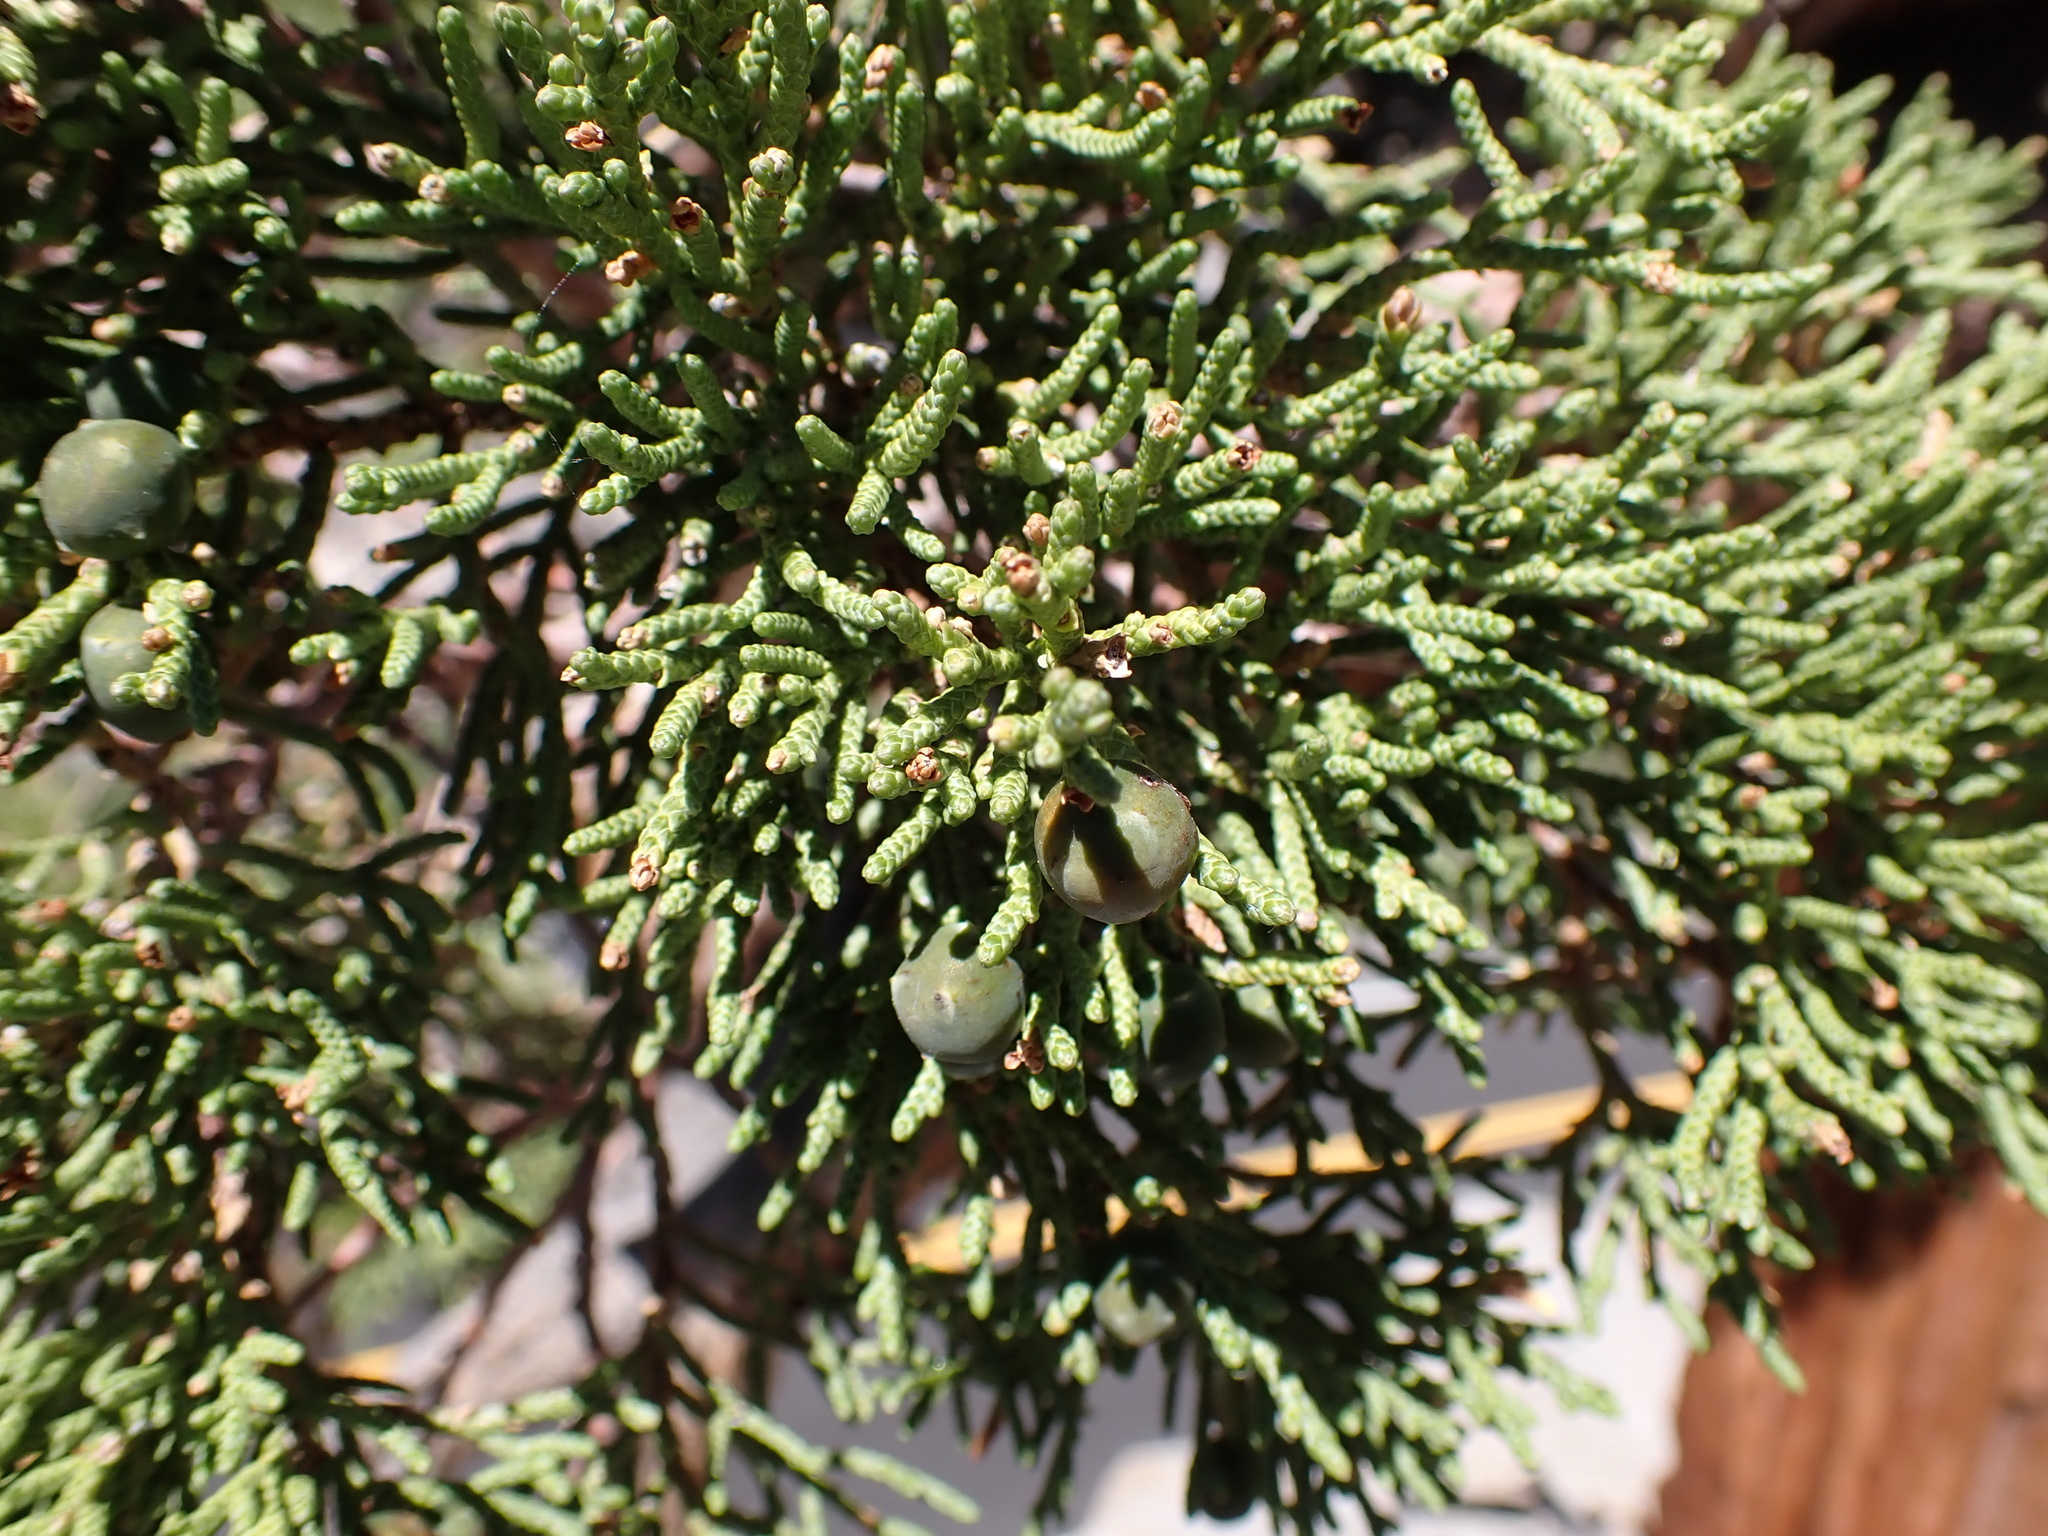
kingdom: Plantae
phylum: Tracheophyta
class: Pinopsida
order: Pinales
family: Cupressaceae
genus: Juniperus
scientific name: Juniperus occidentalis
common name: Western juniper
